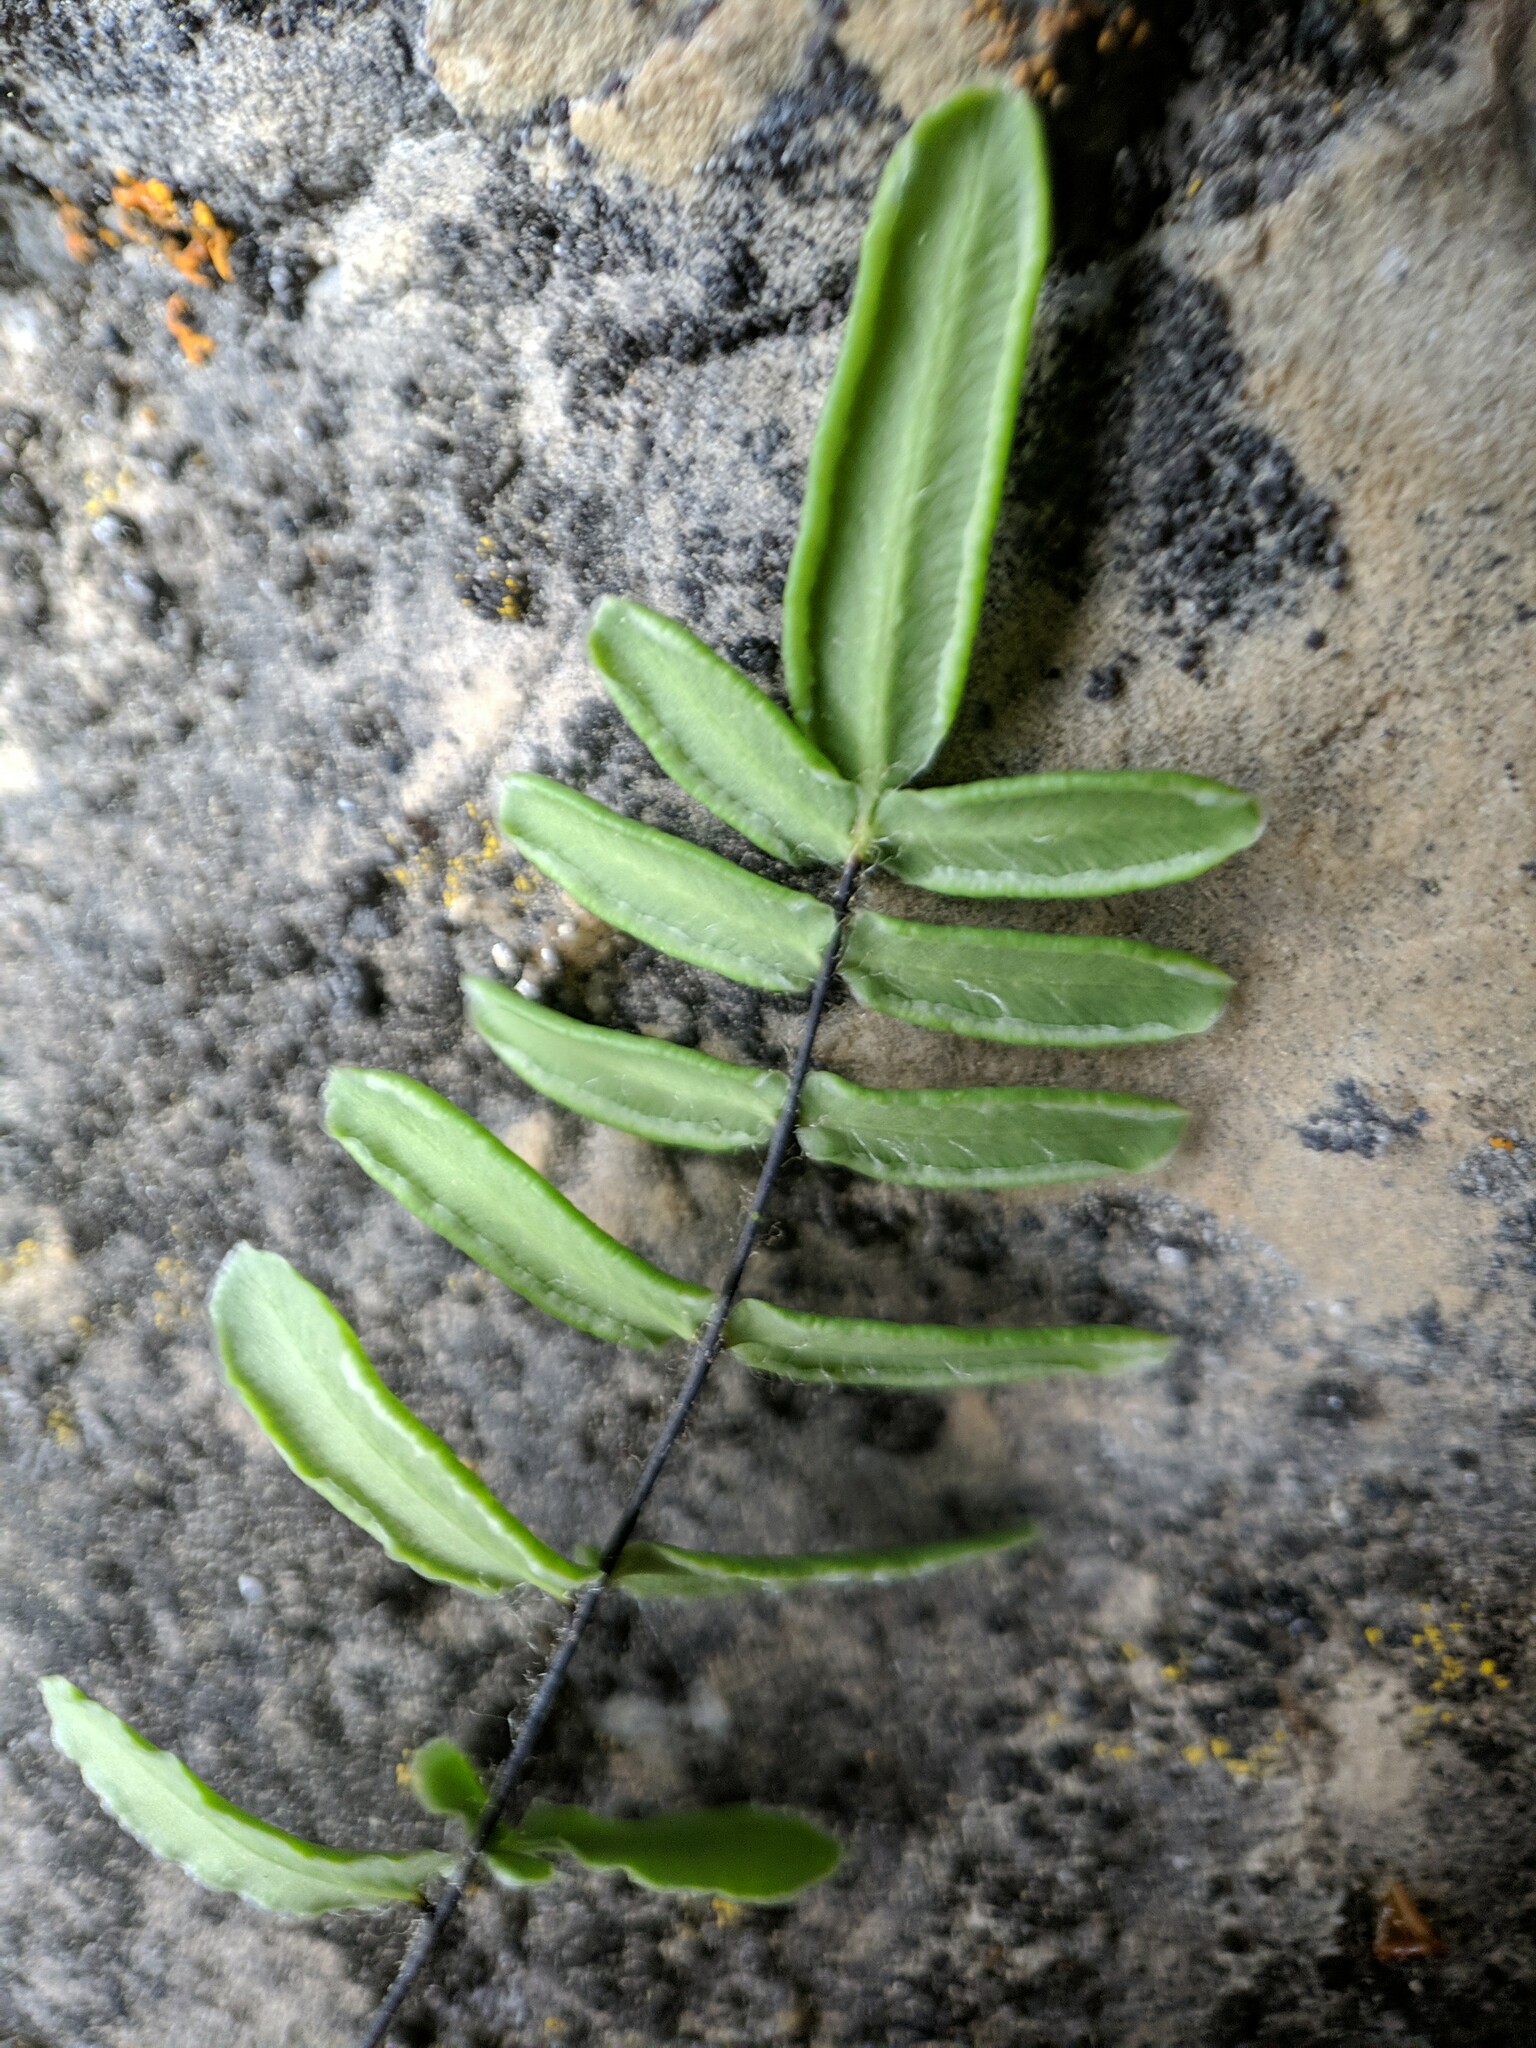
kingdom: Plantae
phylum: Tracheophyta
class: Polypodiopsida
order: Polypodiales
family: Pteridaceae
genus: Pellaea
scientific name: Pellaea gastonyi
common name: Gastony's cliffbrake
